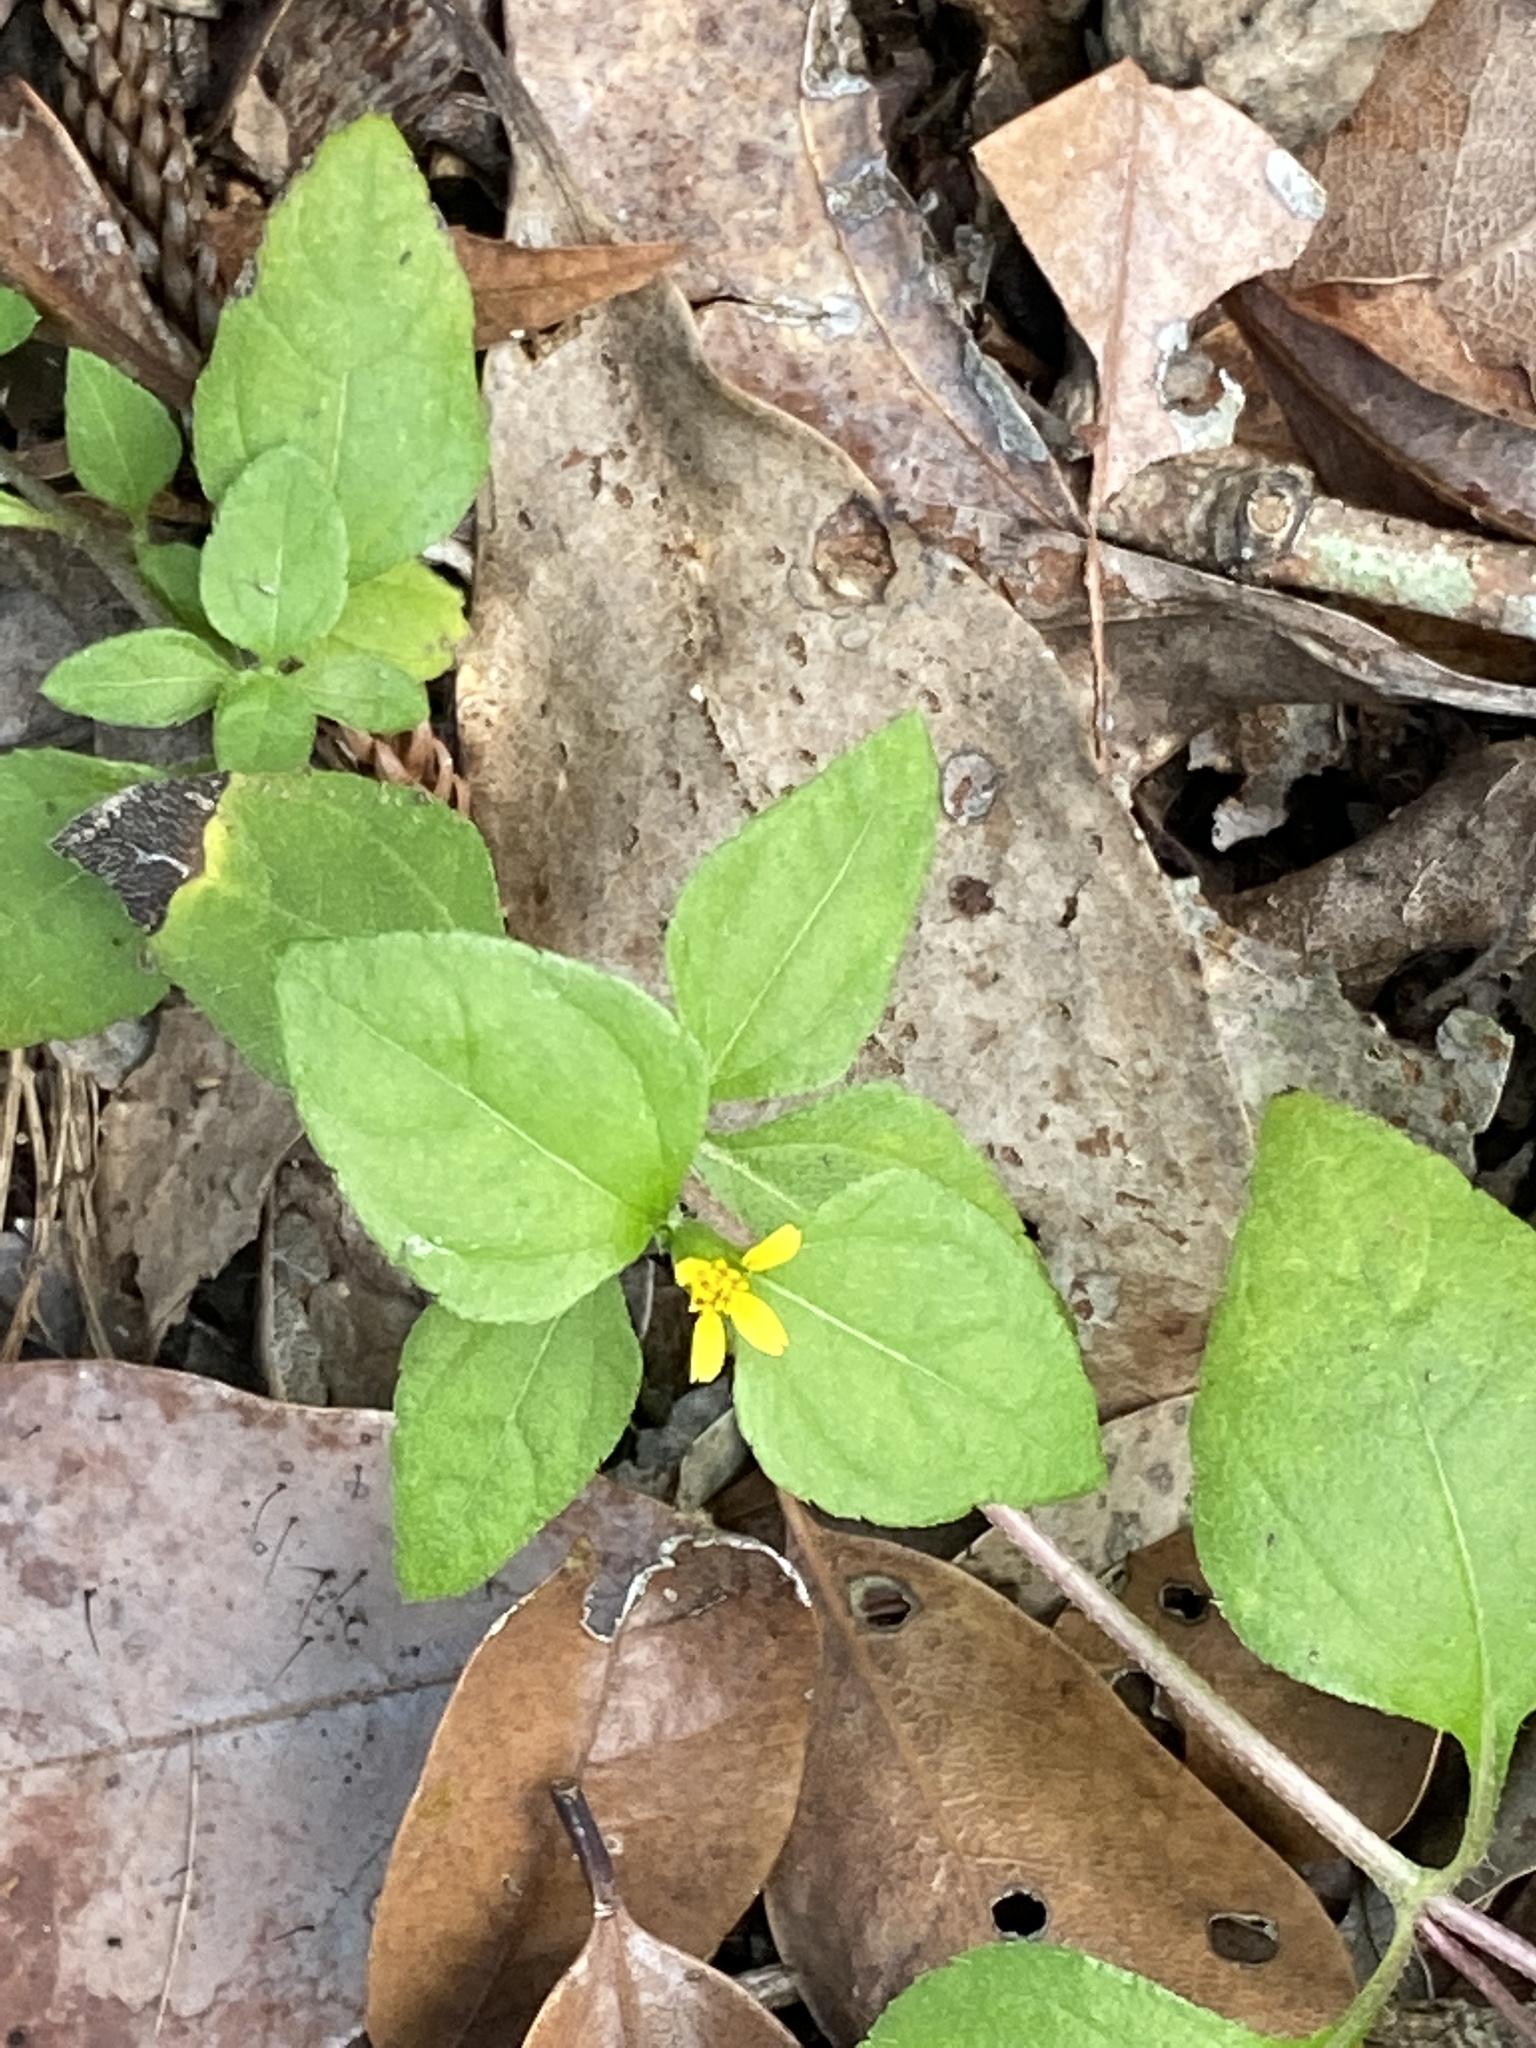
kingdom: Plantae
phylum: Tracheophyta
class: Magnoliopsida
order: Asterales
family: Asteraceae
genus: Calyptocarpus
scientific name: Calyptocarpus vialis
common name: Straggler daisy
